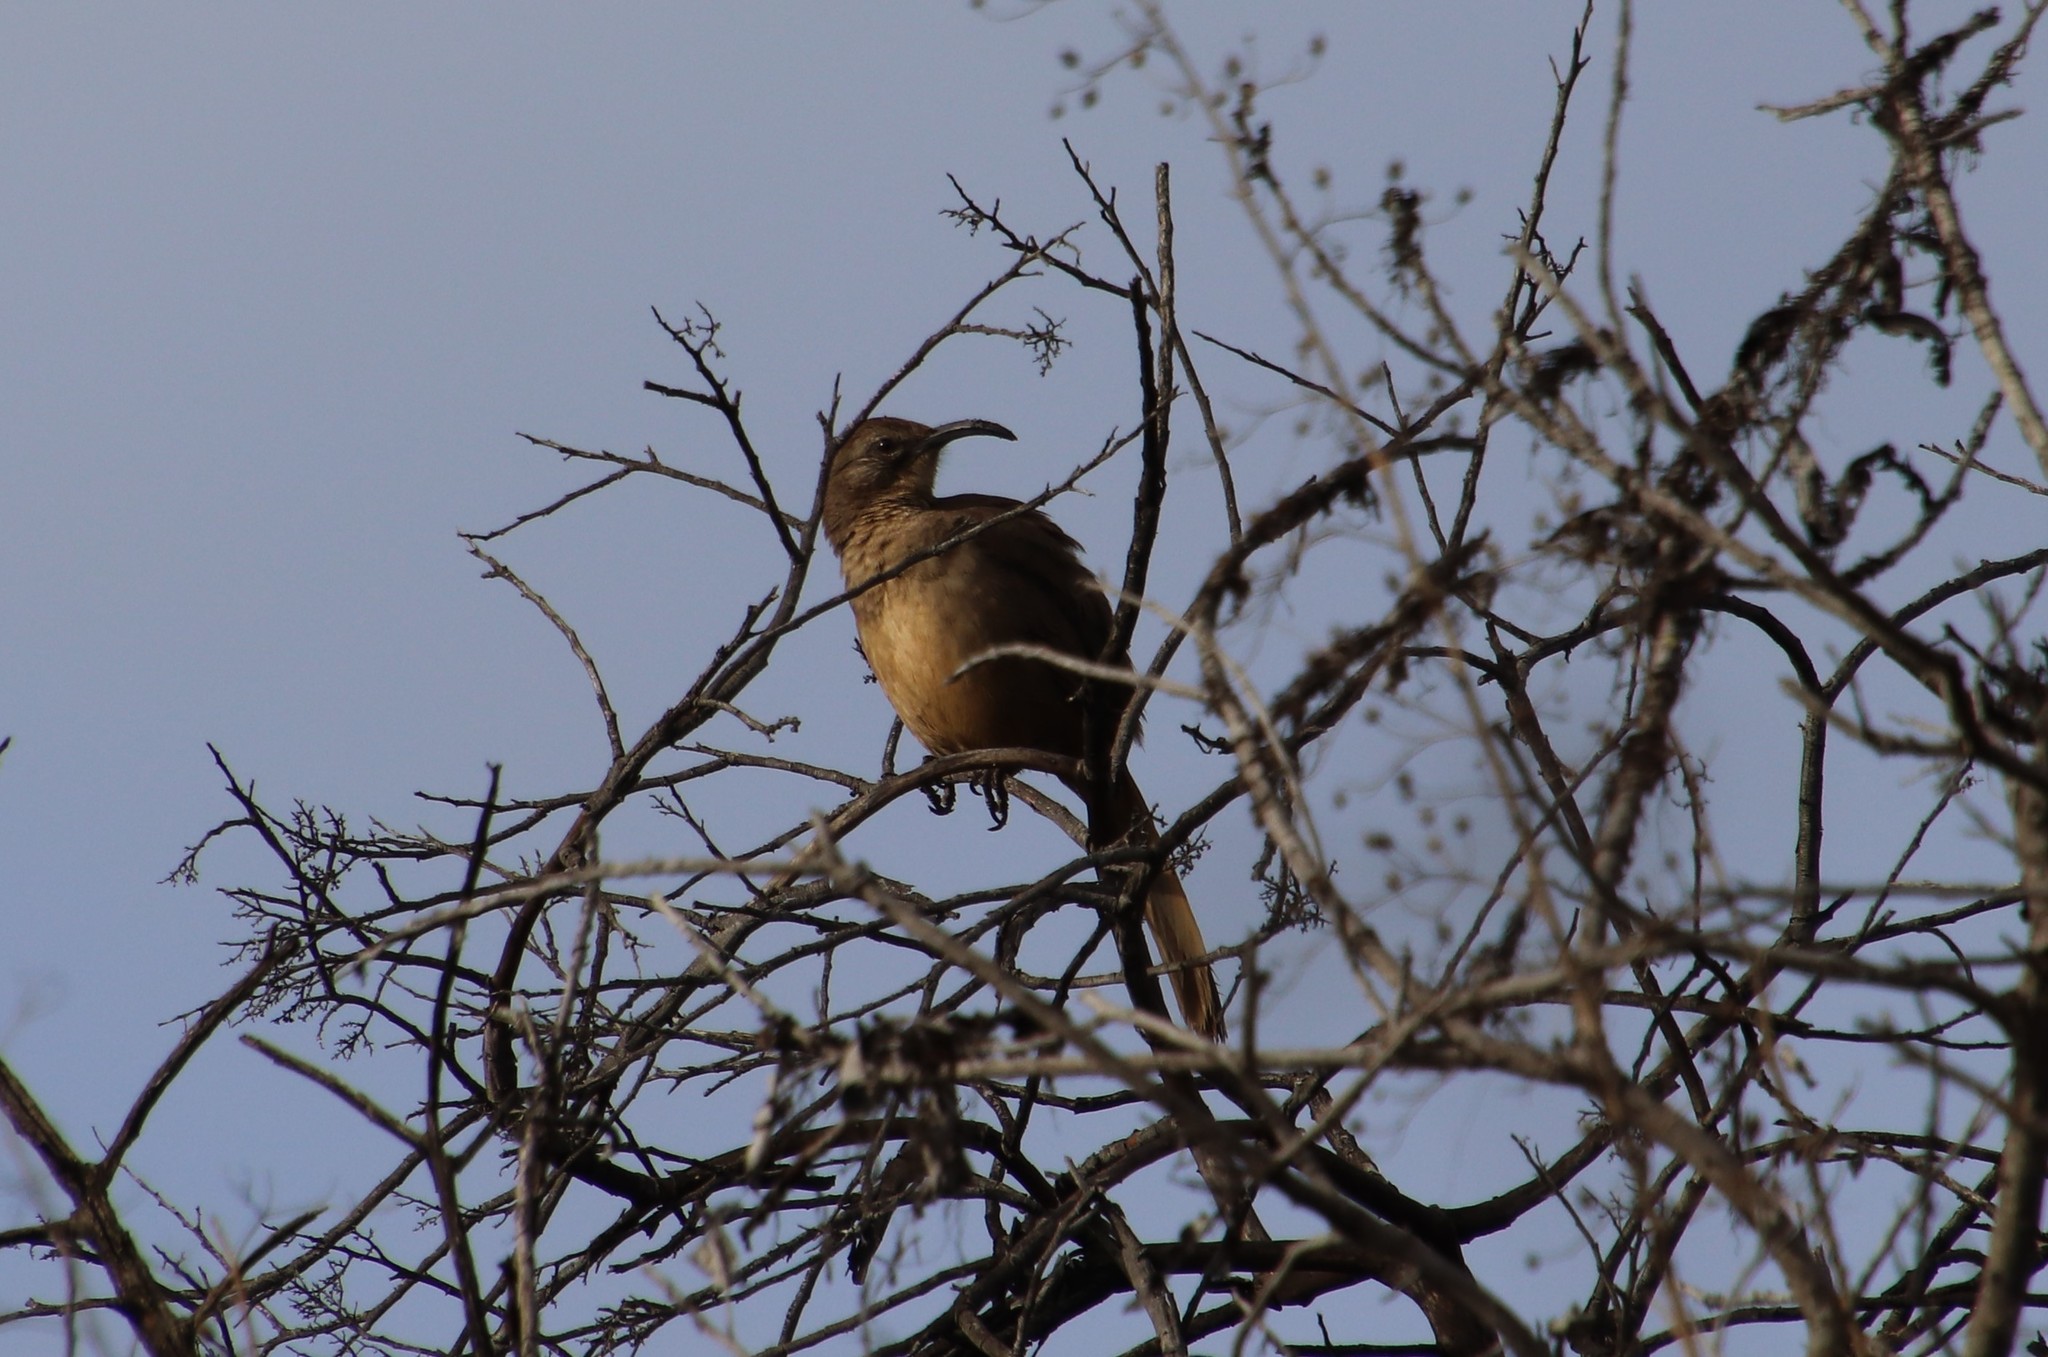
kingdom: Animalia
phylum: Chordata
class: Aves
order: Passeriformes
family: Mimidae
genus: Toxostoma
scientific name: Toxostoma redivivum
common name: California thrasher
